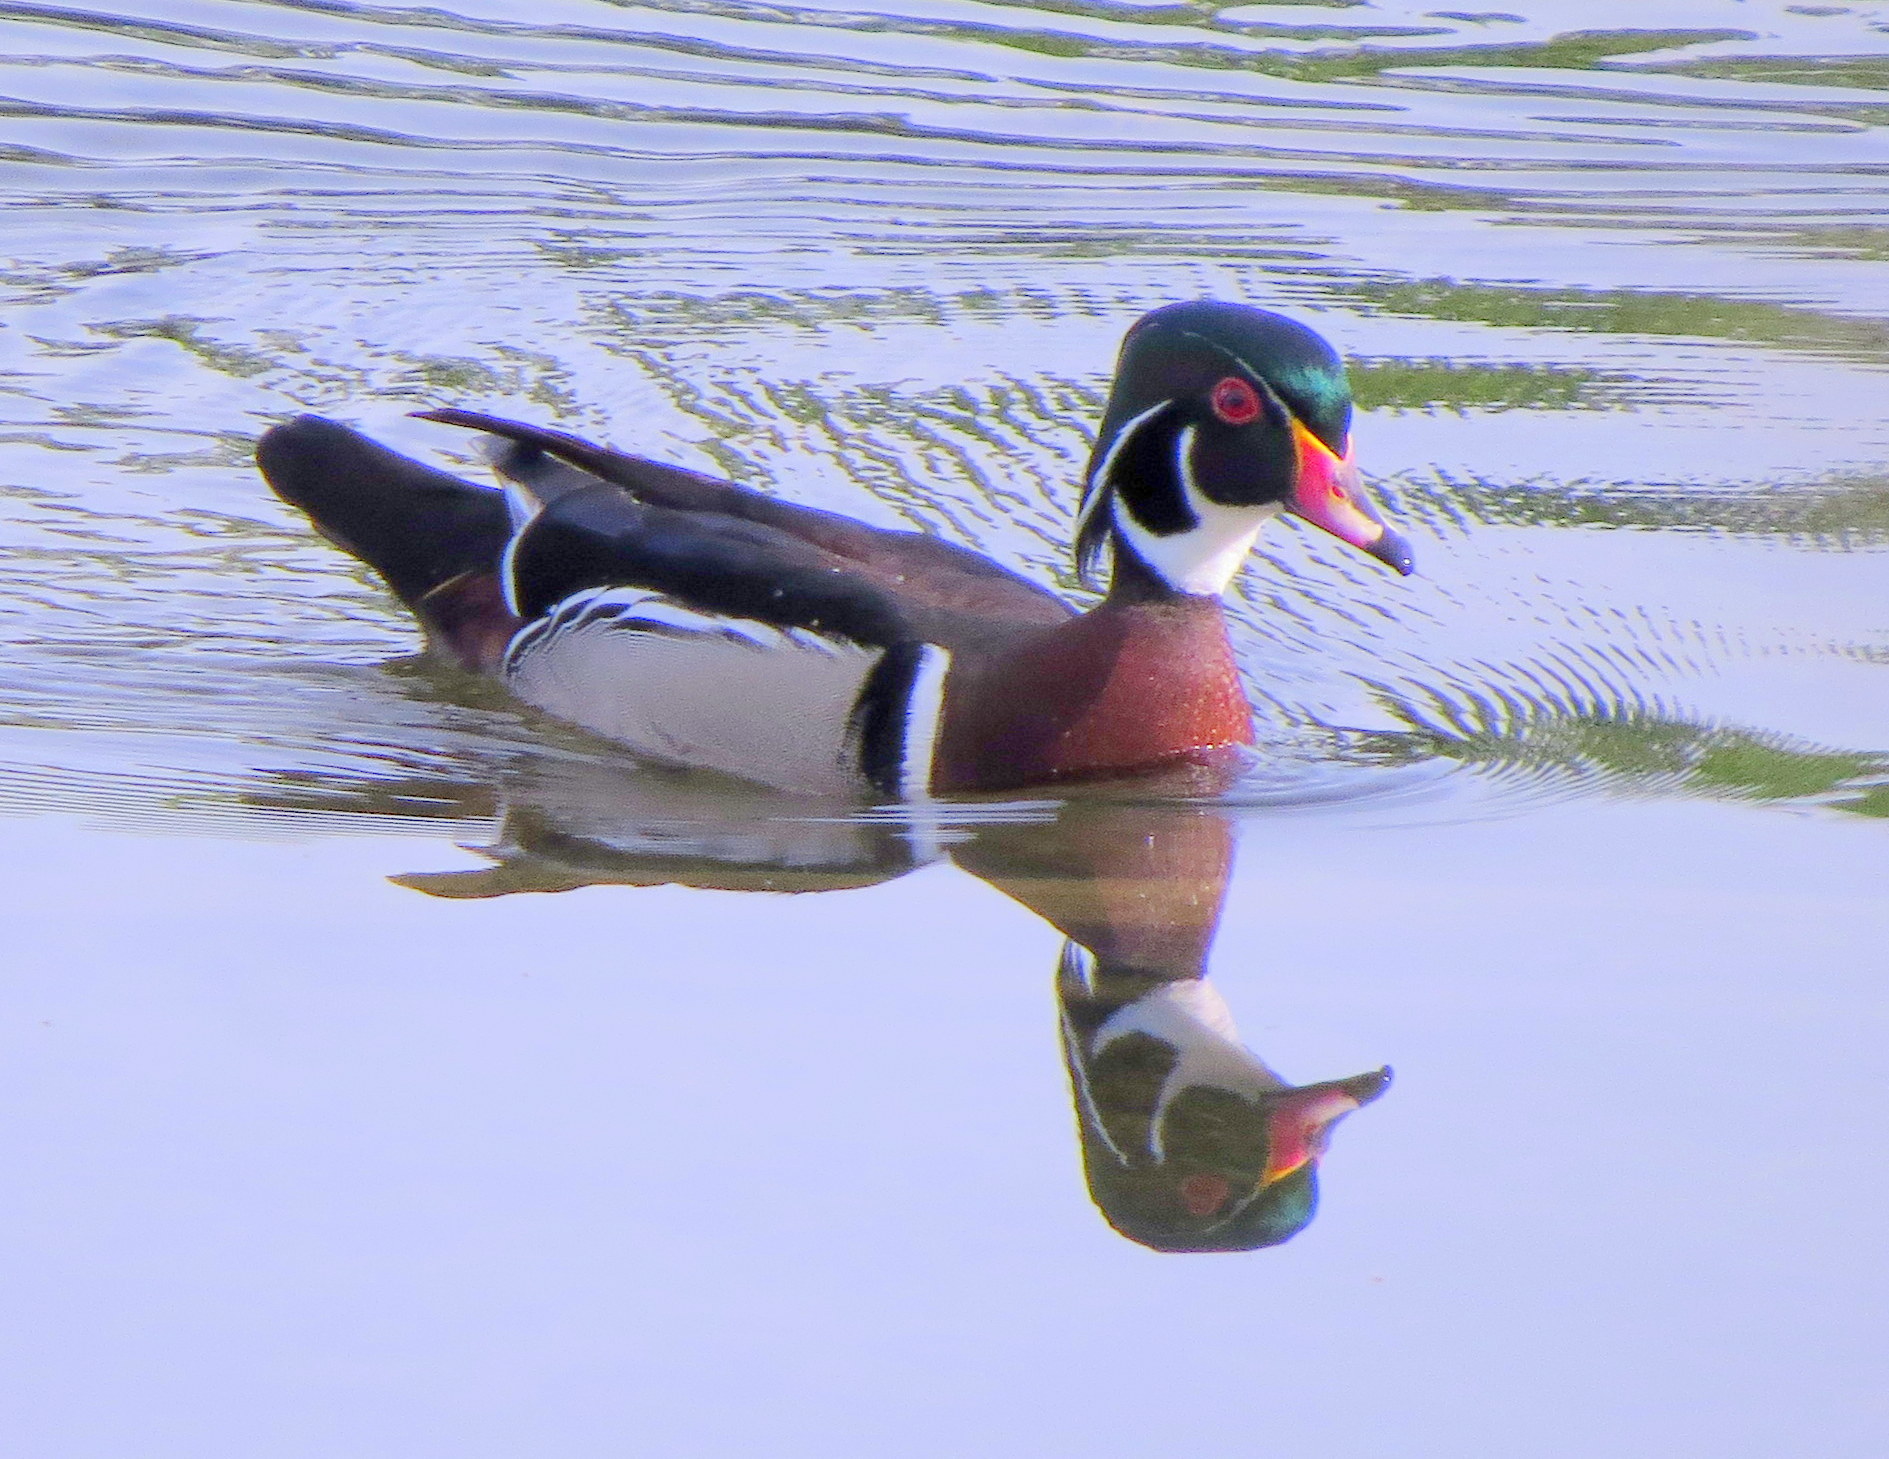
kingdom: Animalia
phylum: Chordata
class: Aves
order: Anseriformes
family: Anatidae
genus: Aix
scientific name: Aix sponsa
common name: Wood duck
